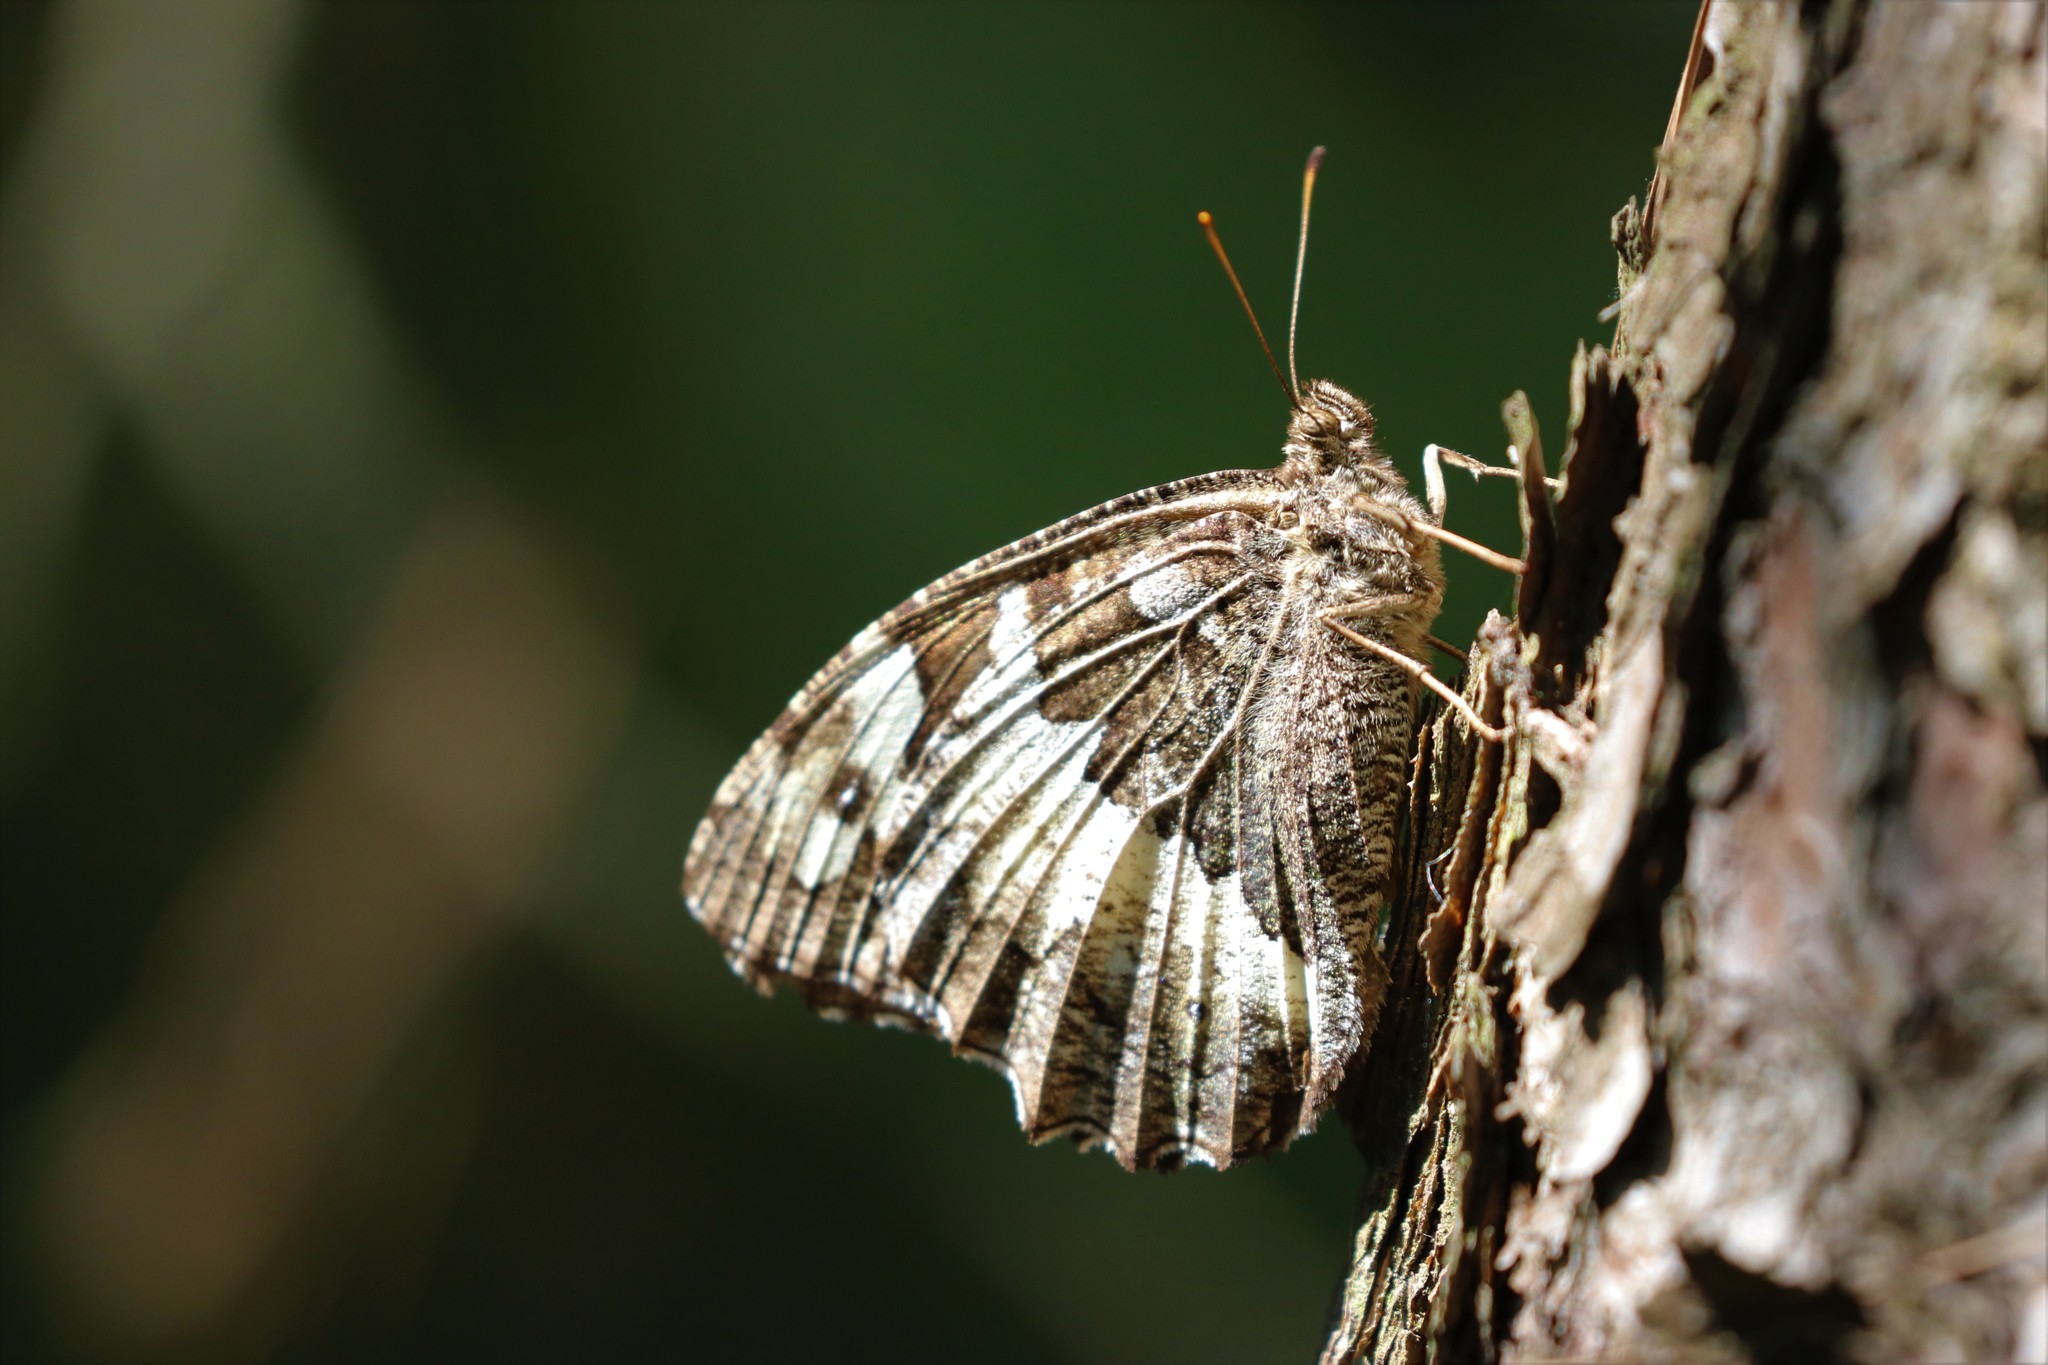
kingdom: Animalia
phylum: Arthropoda
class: Insecta
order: Lepidoptera
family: Lycaenidae
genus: Loweia
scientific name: Loweia tityrus
